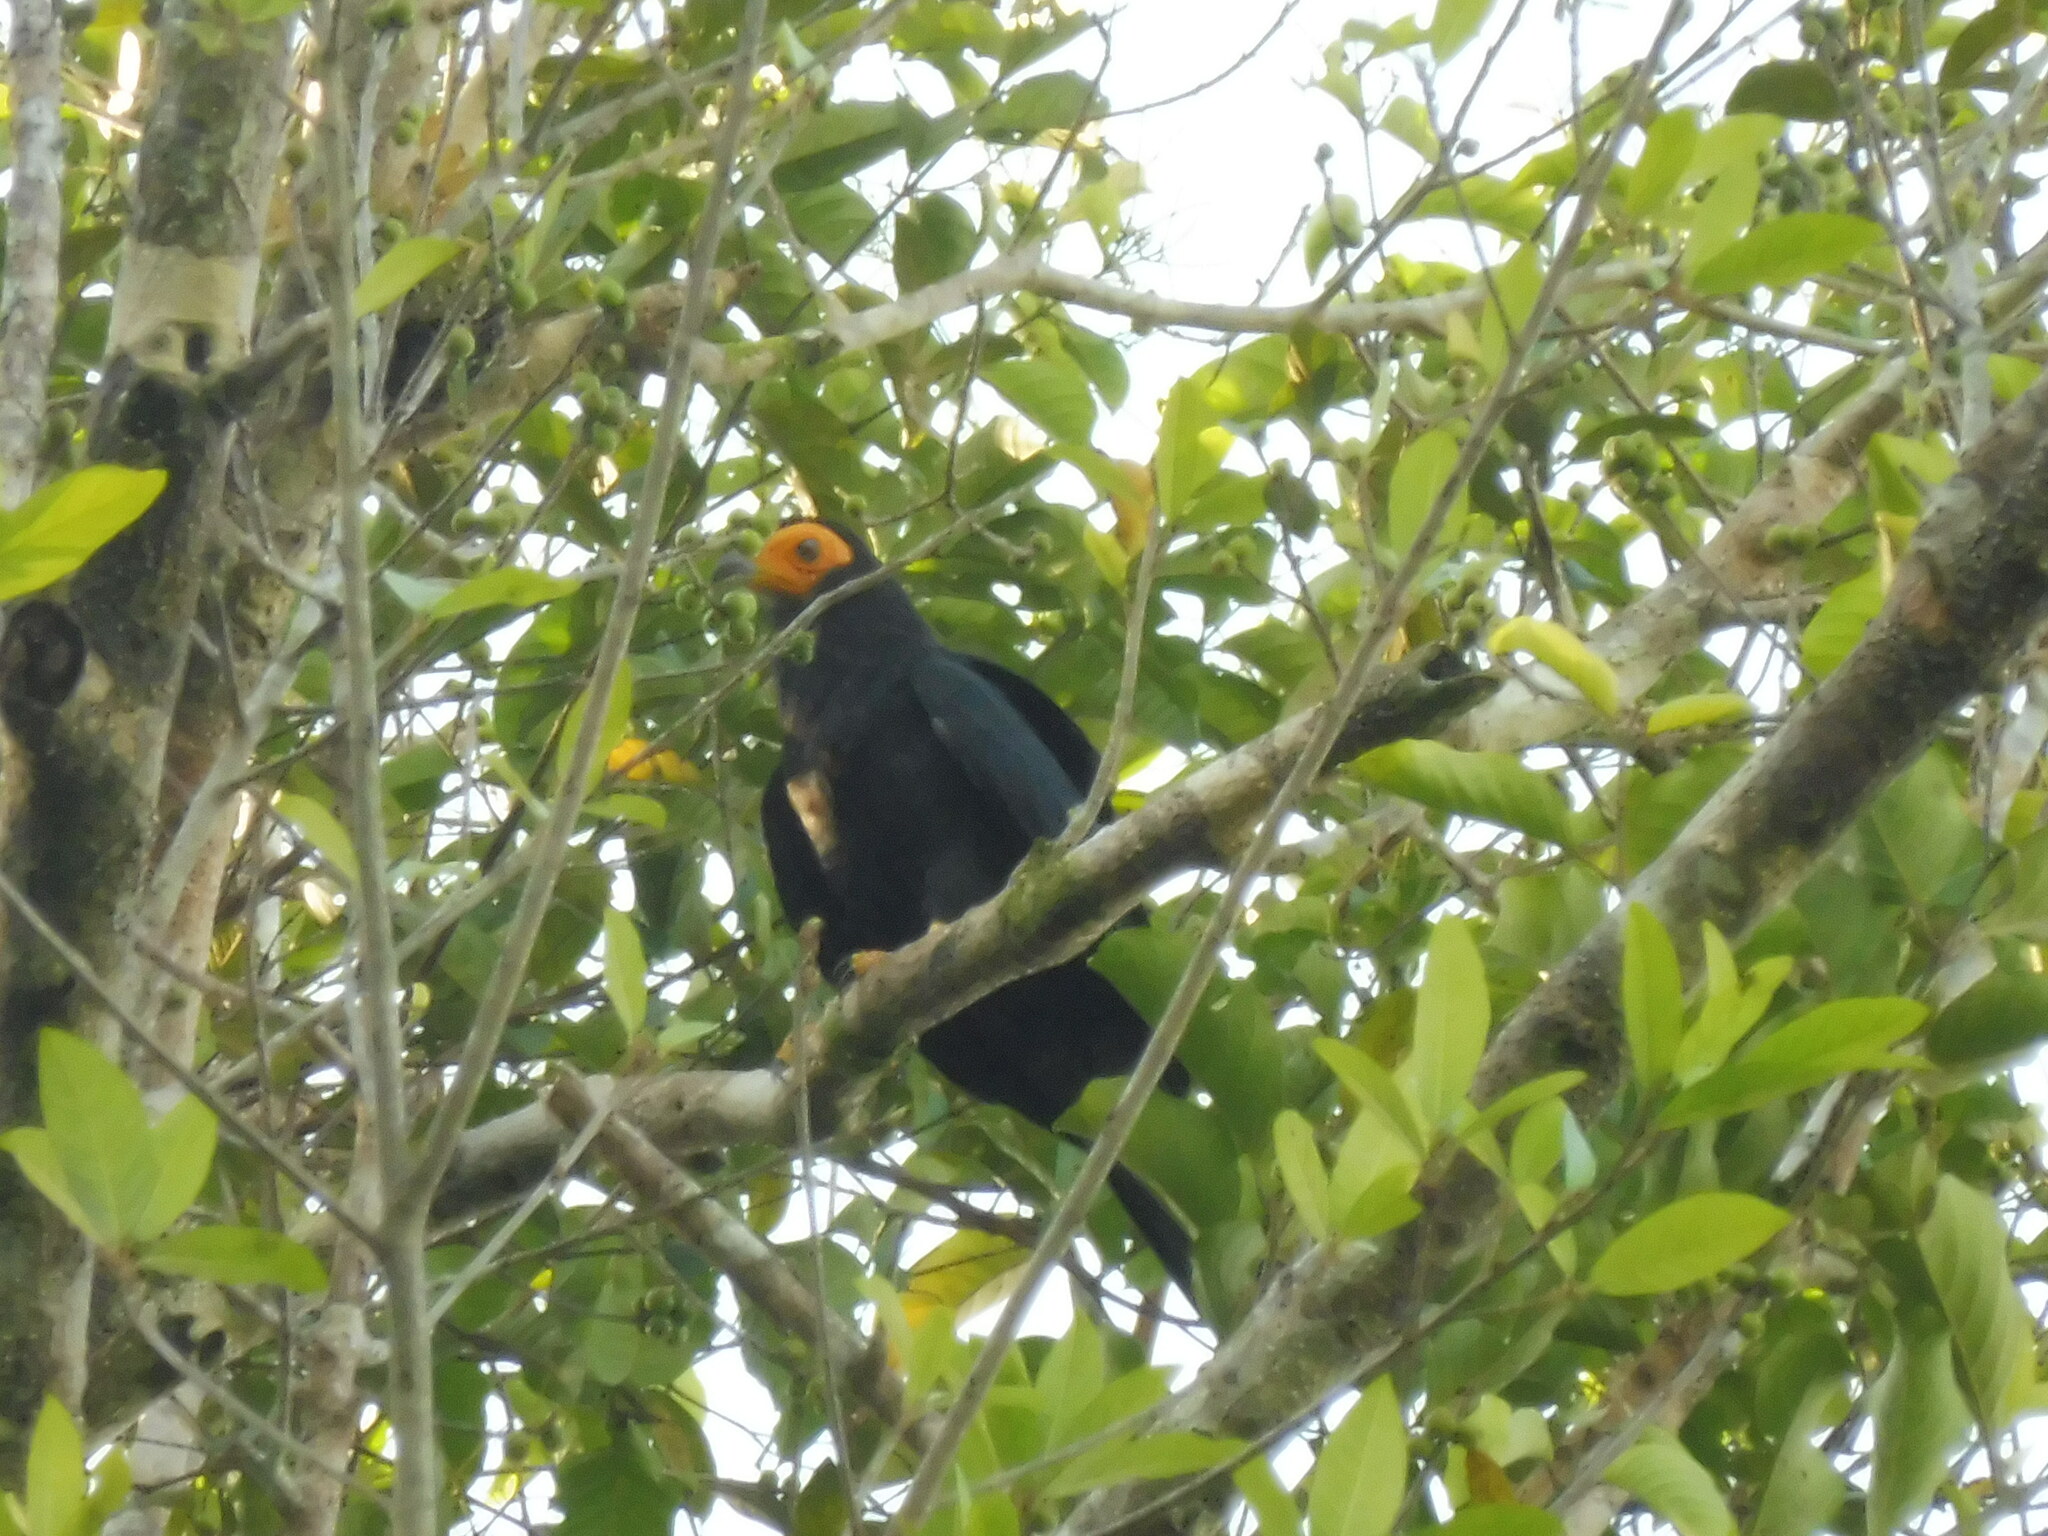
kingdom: Animalia
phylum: Chordata
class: Aves
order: Falconiformes
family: Falconidae
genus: Daptrius
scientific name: Daptrius ater
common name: Black caracara
